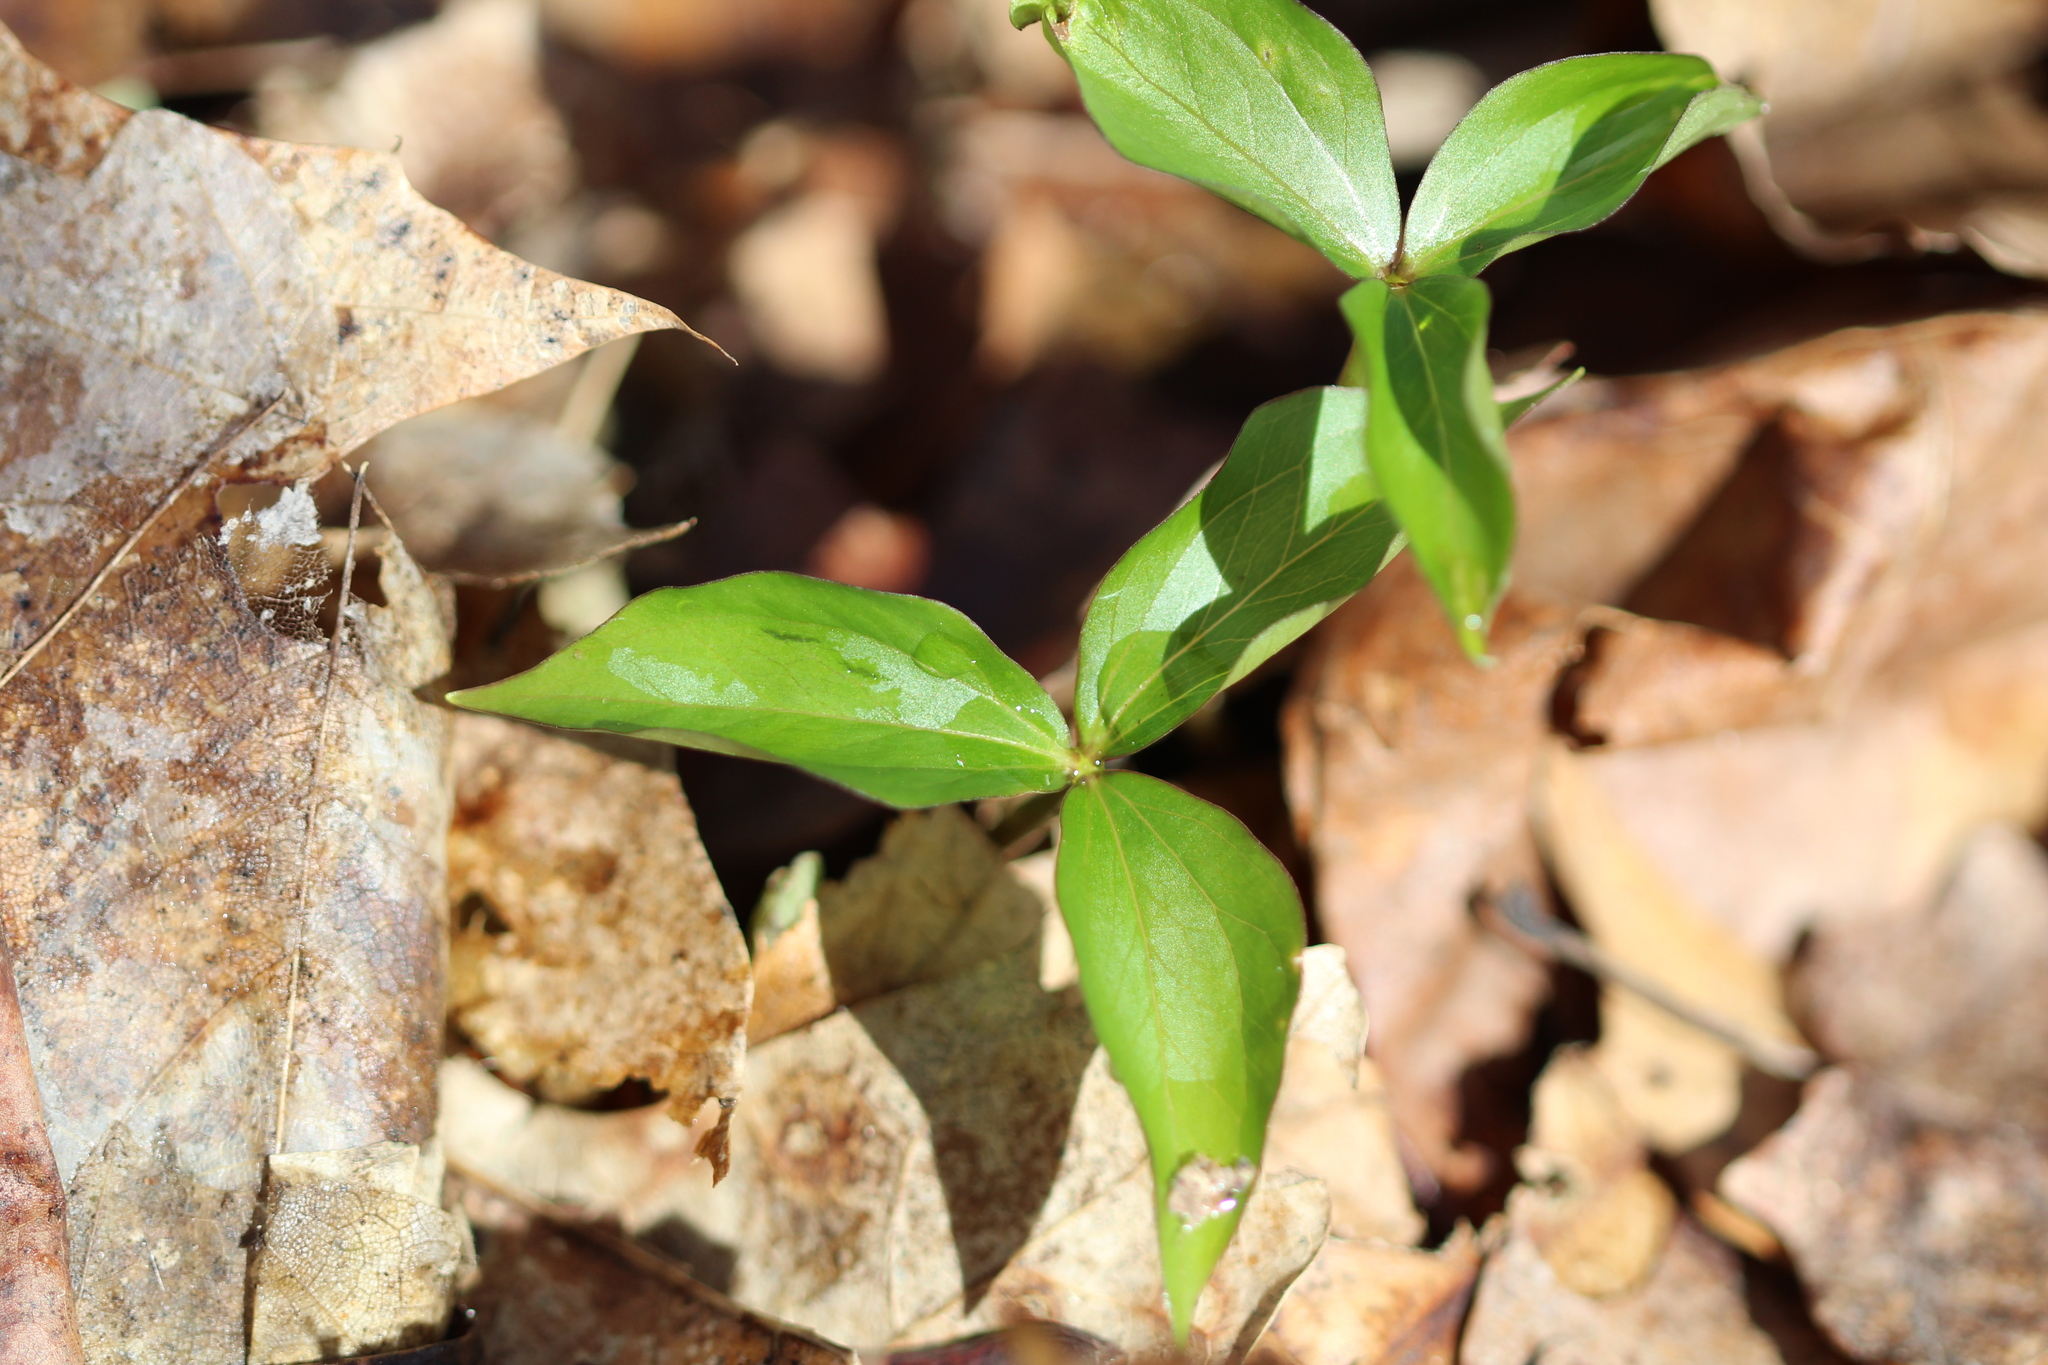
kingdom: Plantae
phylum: Tracheophyta
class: Liliopsida
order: Liliales
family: Melanthiaceae
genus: Trillium
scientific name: Trillium grandiflorum
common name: Great white trillium
